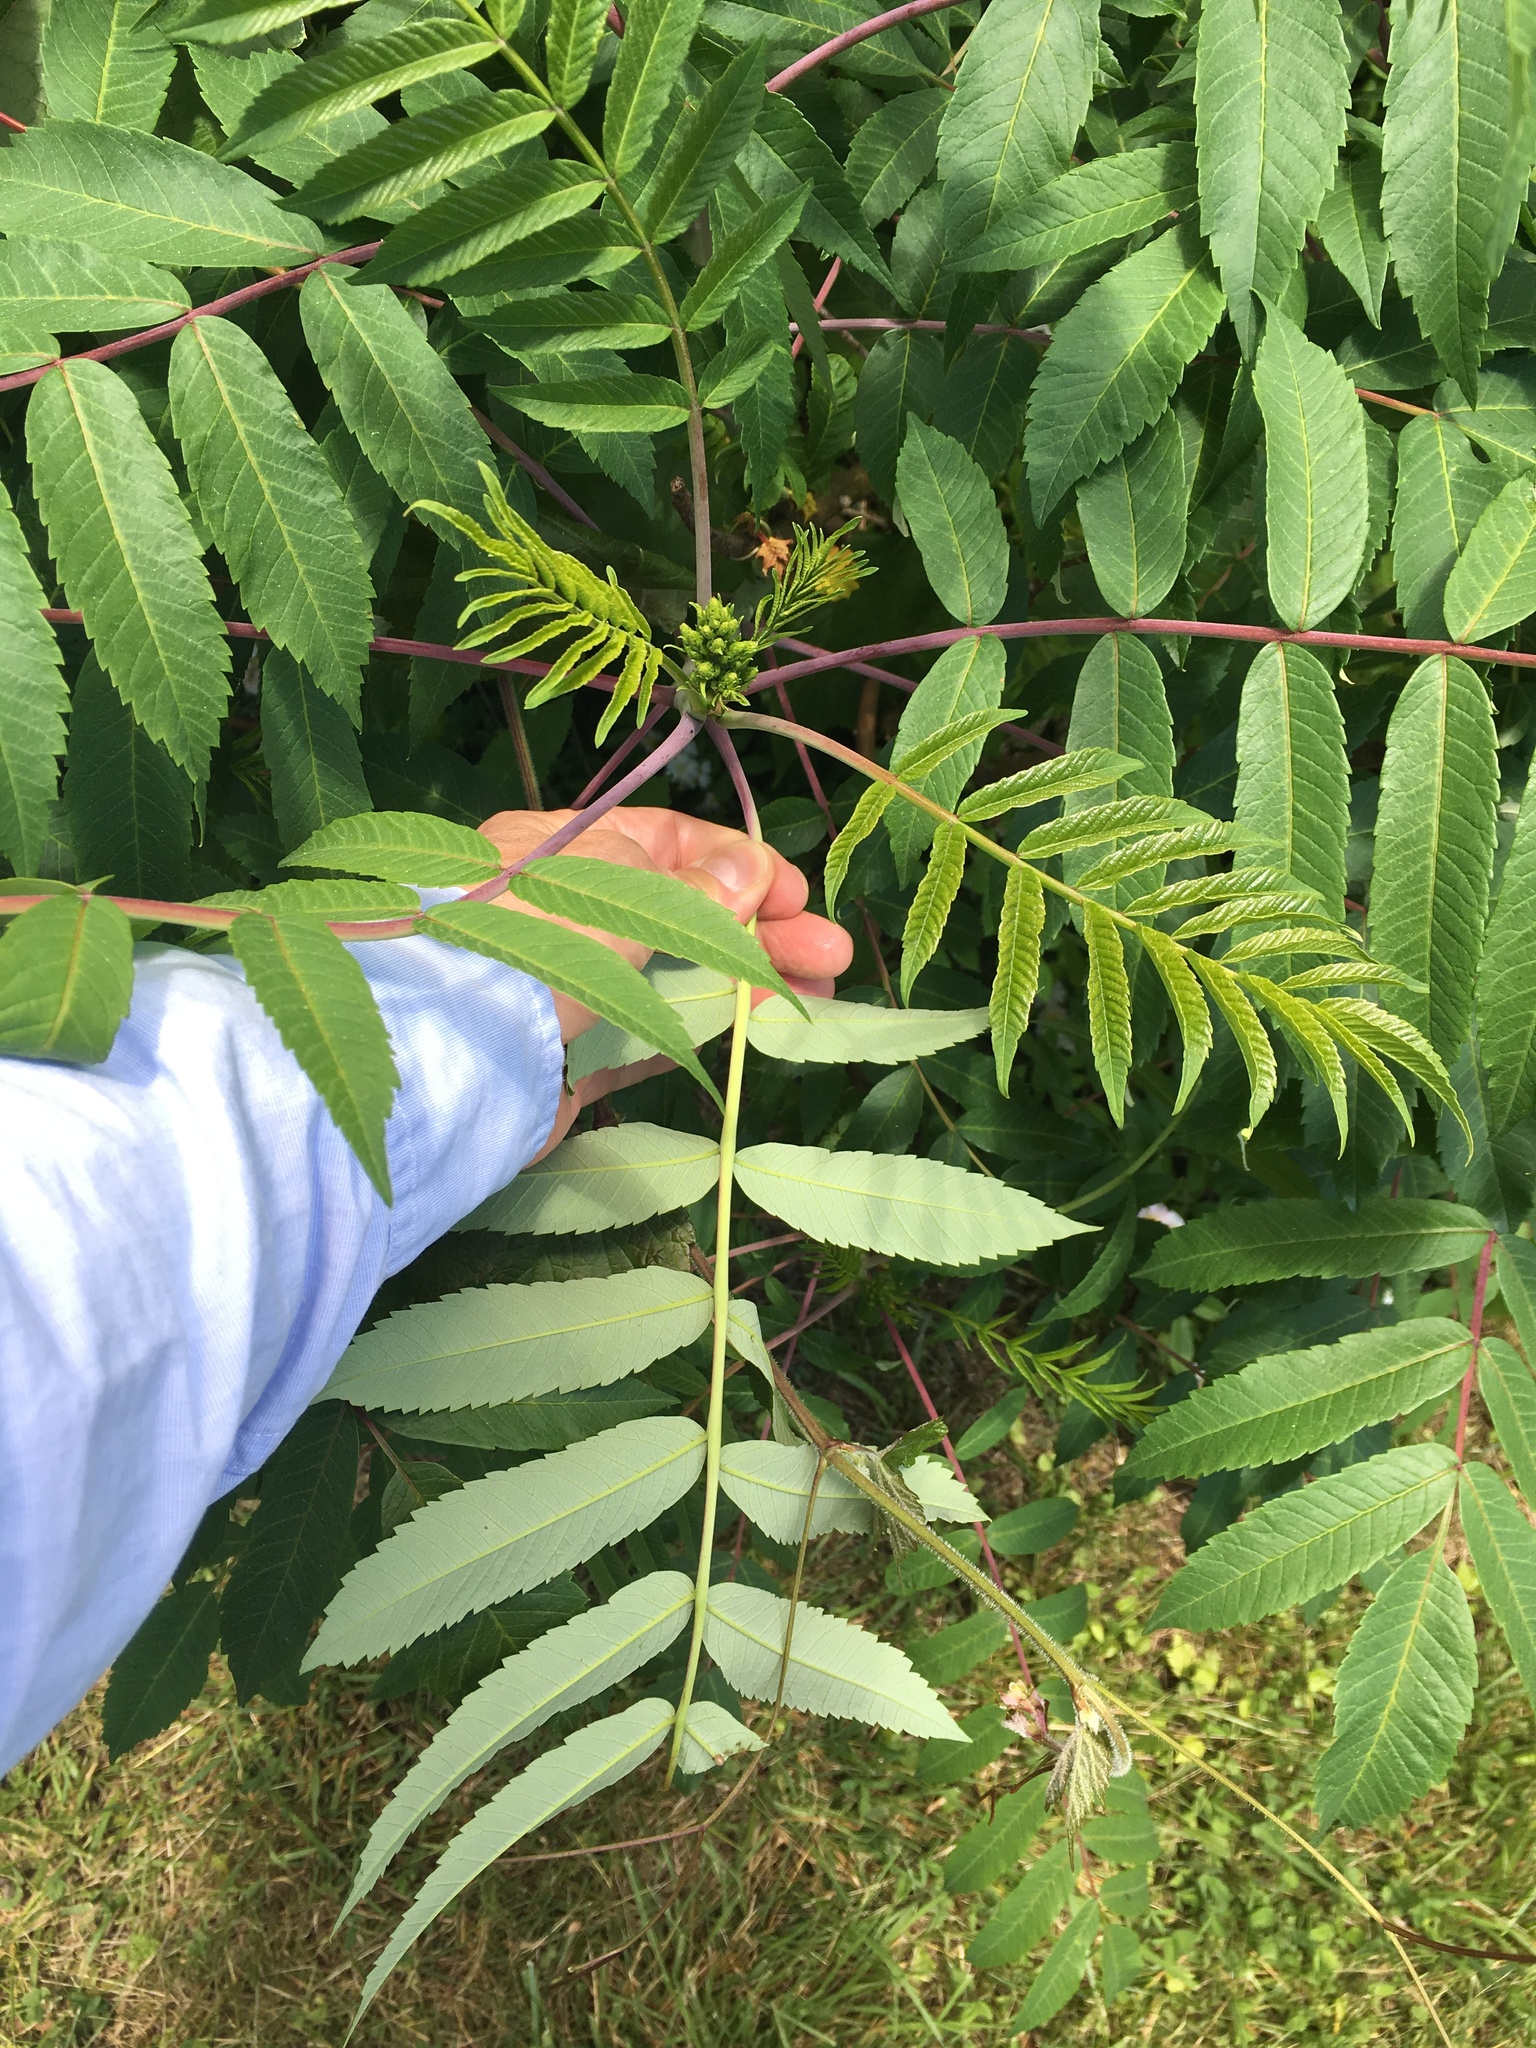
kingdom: Plantae
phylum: Tracheophyta
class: Magnoliopsida
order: Sapindales
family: Anacardiaceae
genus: Rhus
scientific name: Rhus glabra
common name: Scarlet sumac
